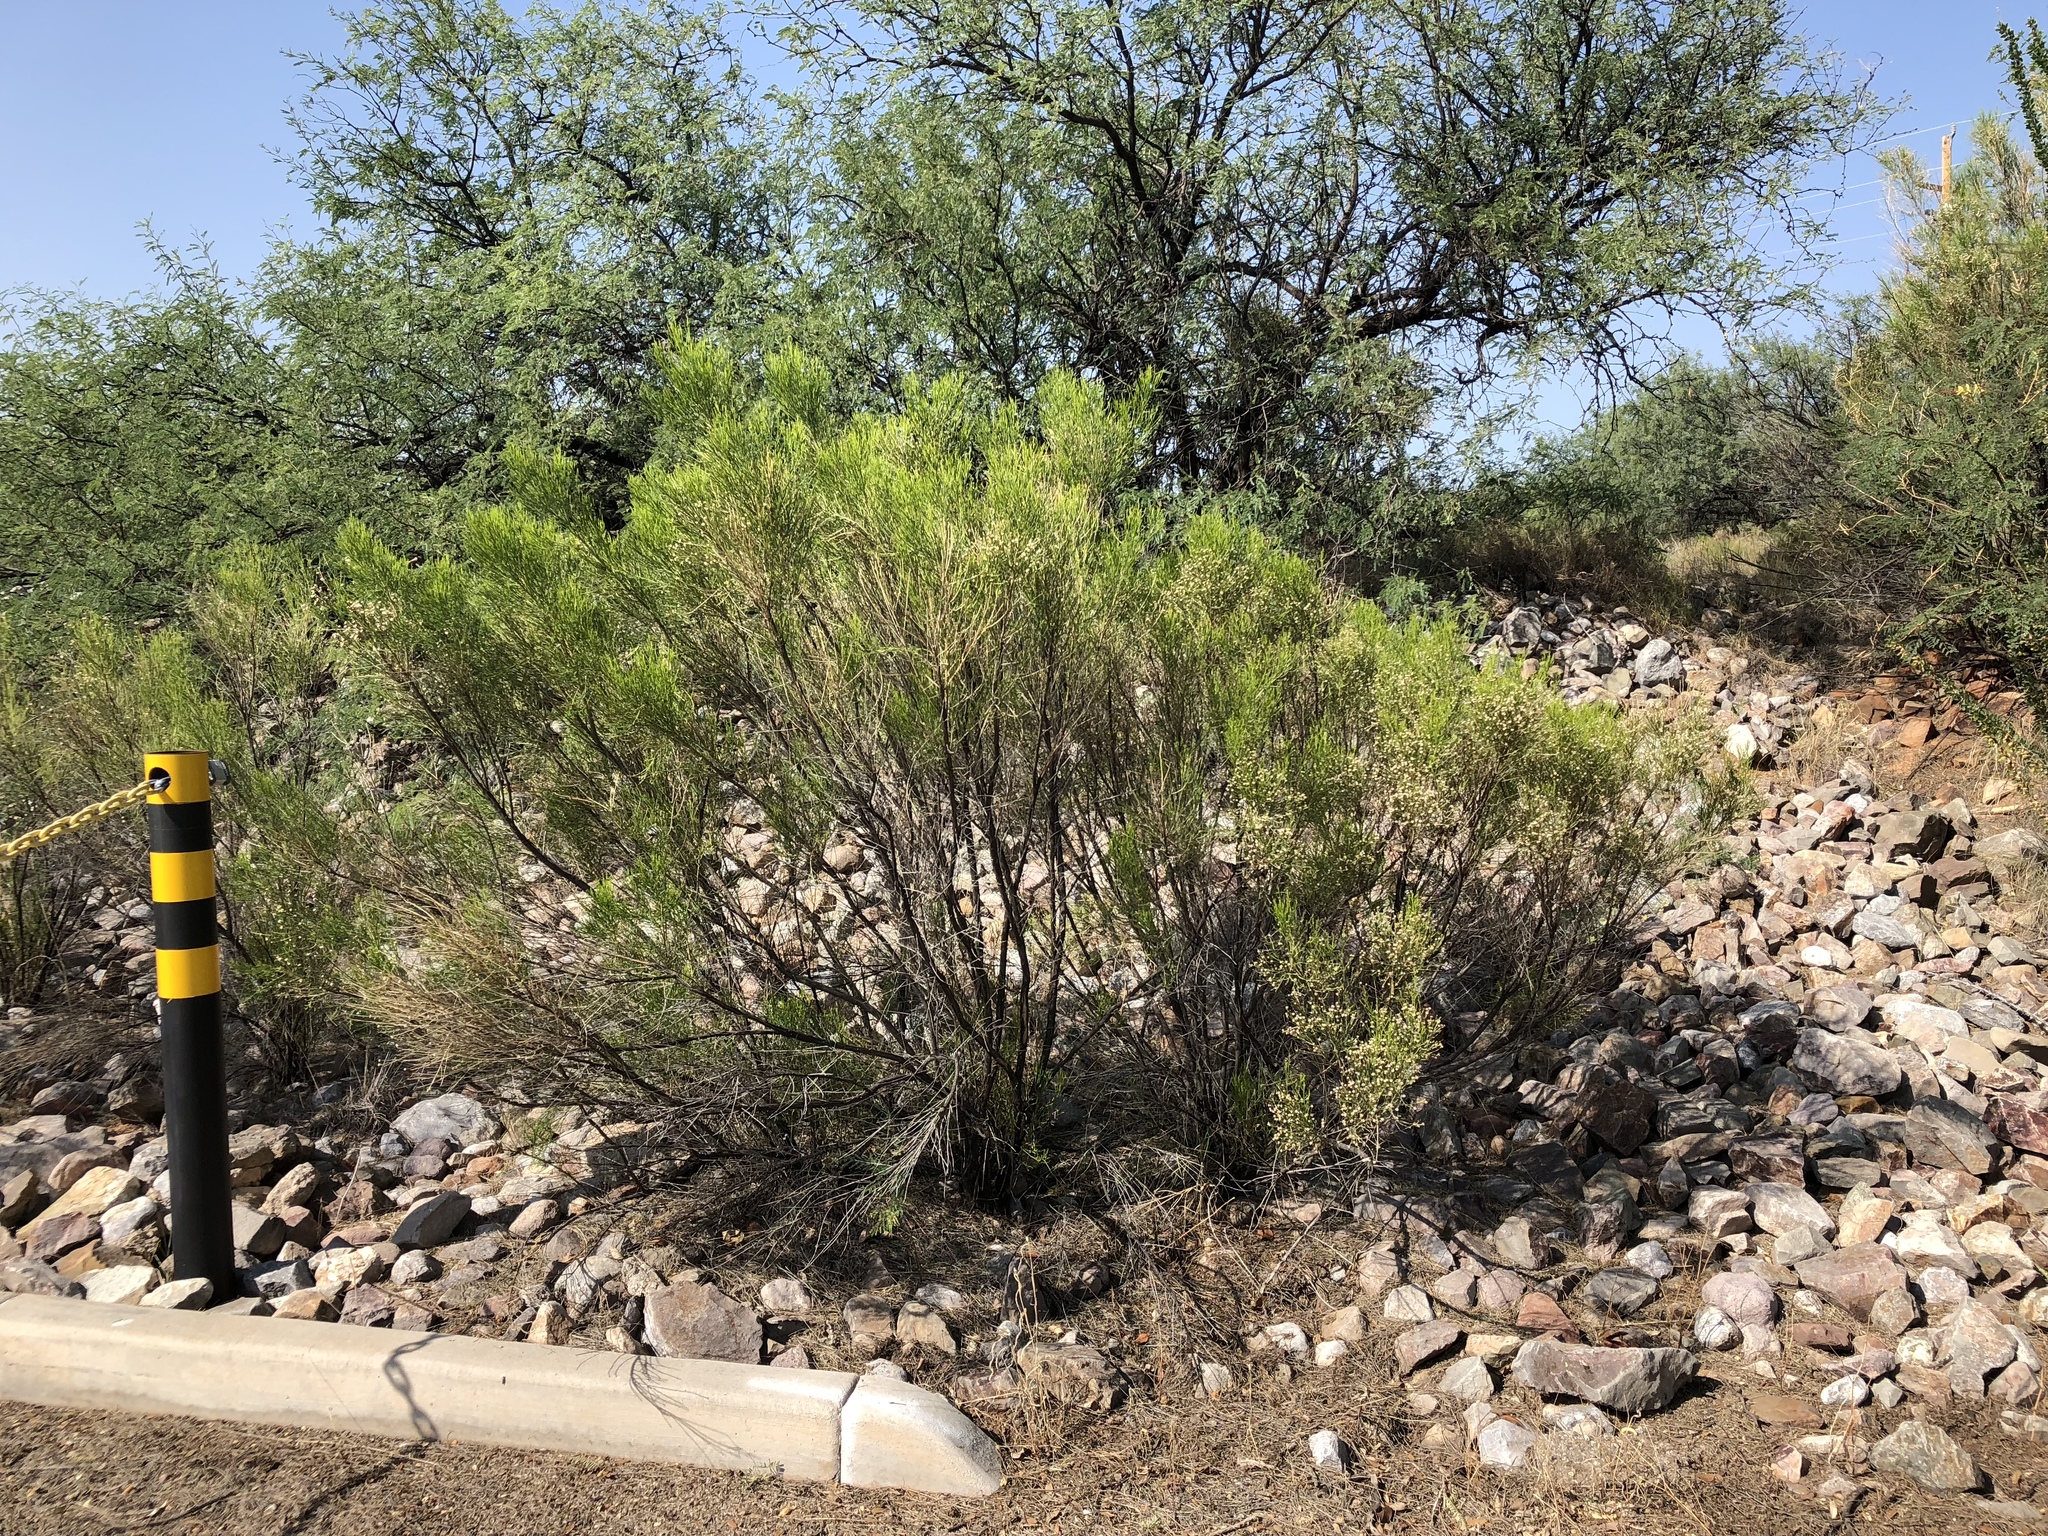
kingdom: Plantae
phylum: Tracheophyta
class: Magnoliopsida
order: Asterales
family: Asteraceae
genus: Baccharis
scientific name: Baccharis sarothroides
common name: Desert-broom
